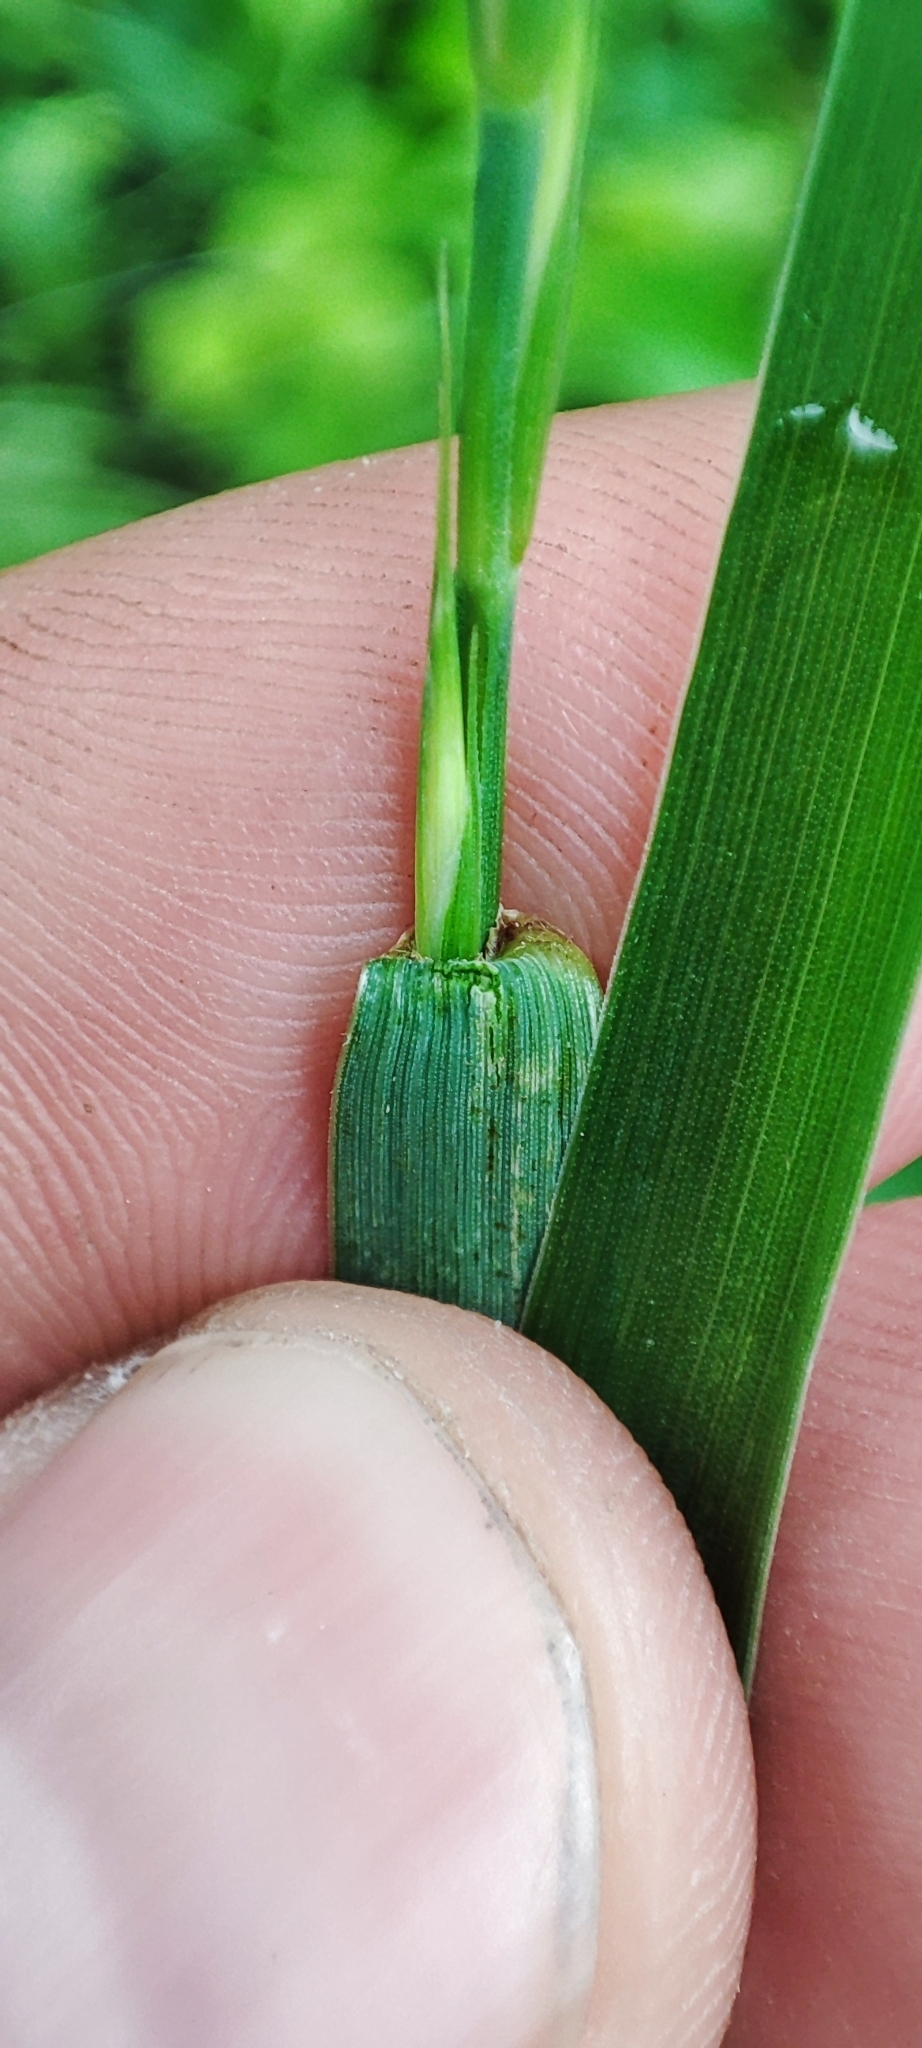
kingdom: Plantae
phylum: Tracheophyta
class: Liliopsida
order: Poales
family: Poaceae
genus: Elymus
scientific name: Elymus repens
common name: Quackgrass
